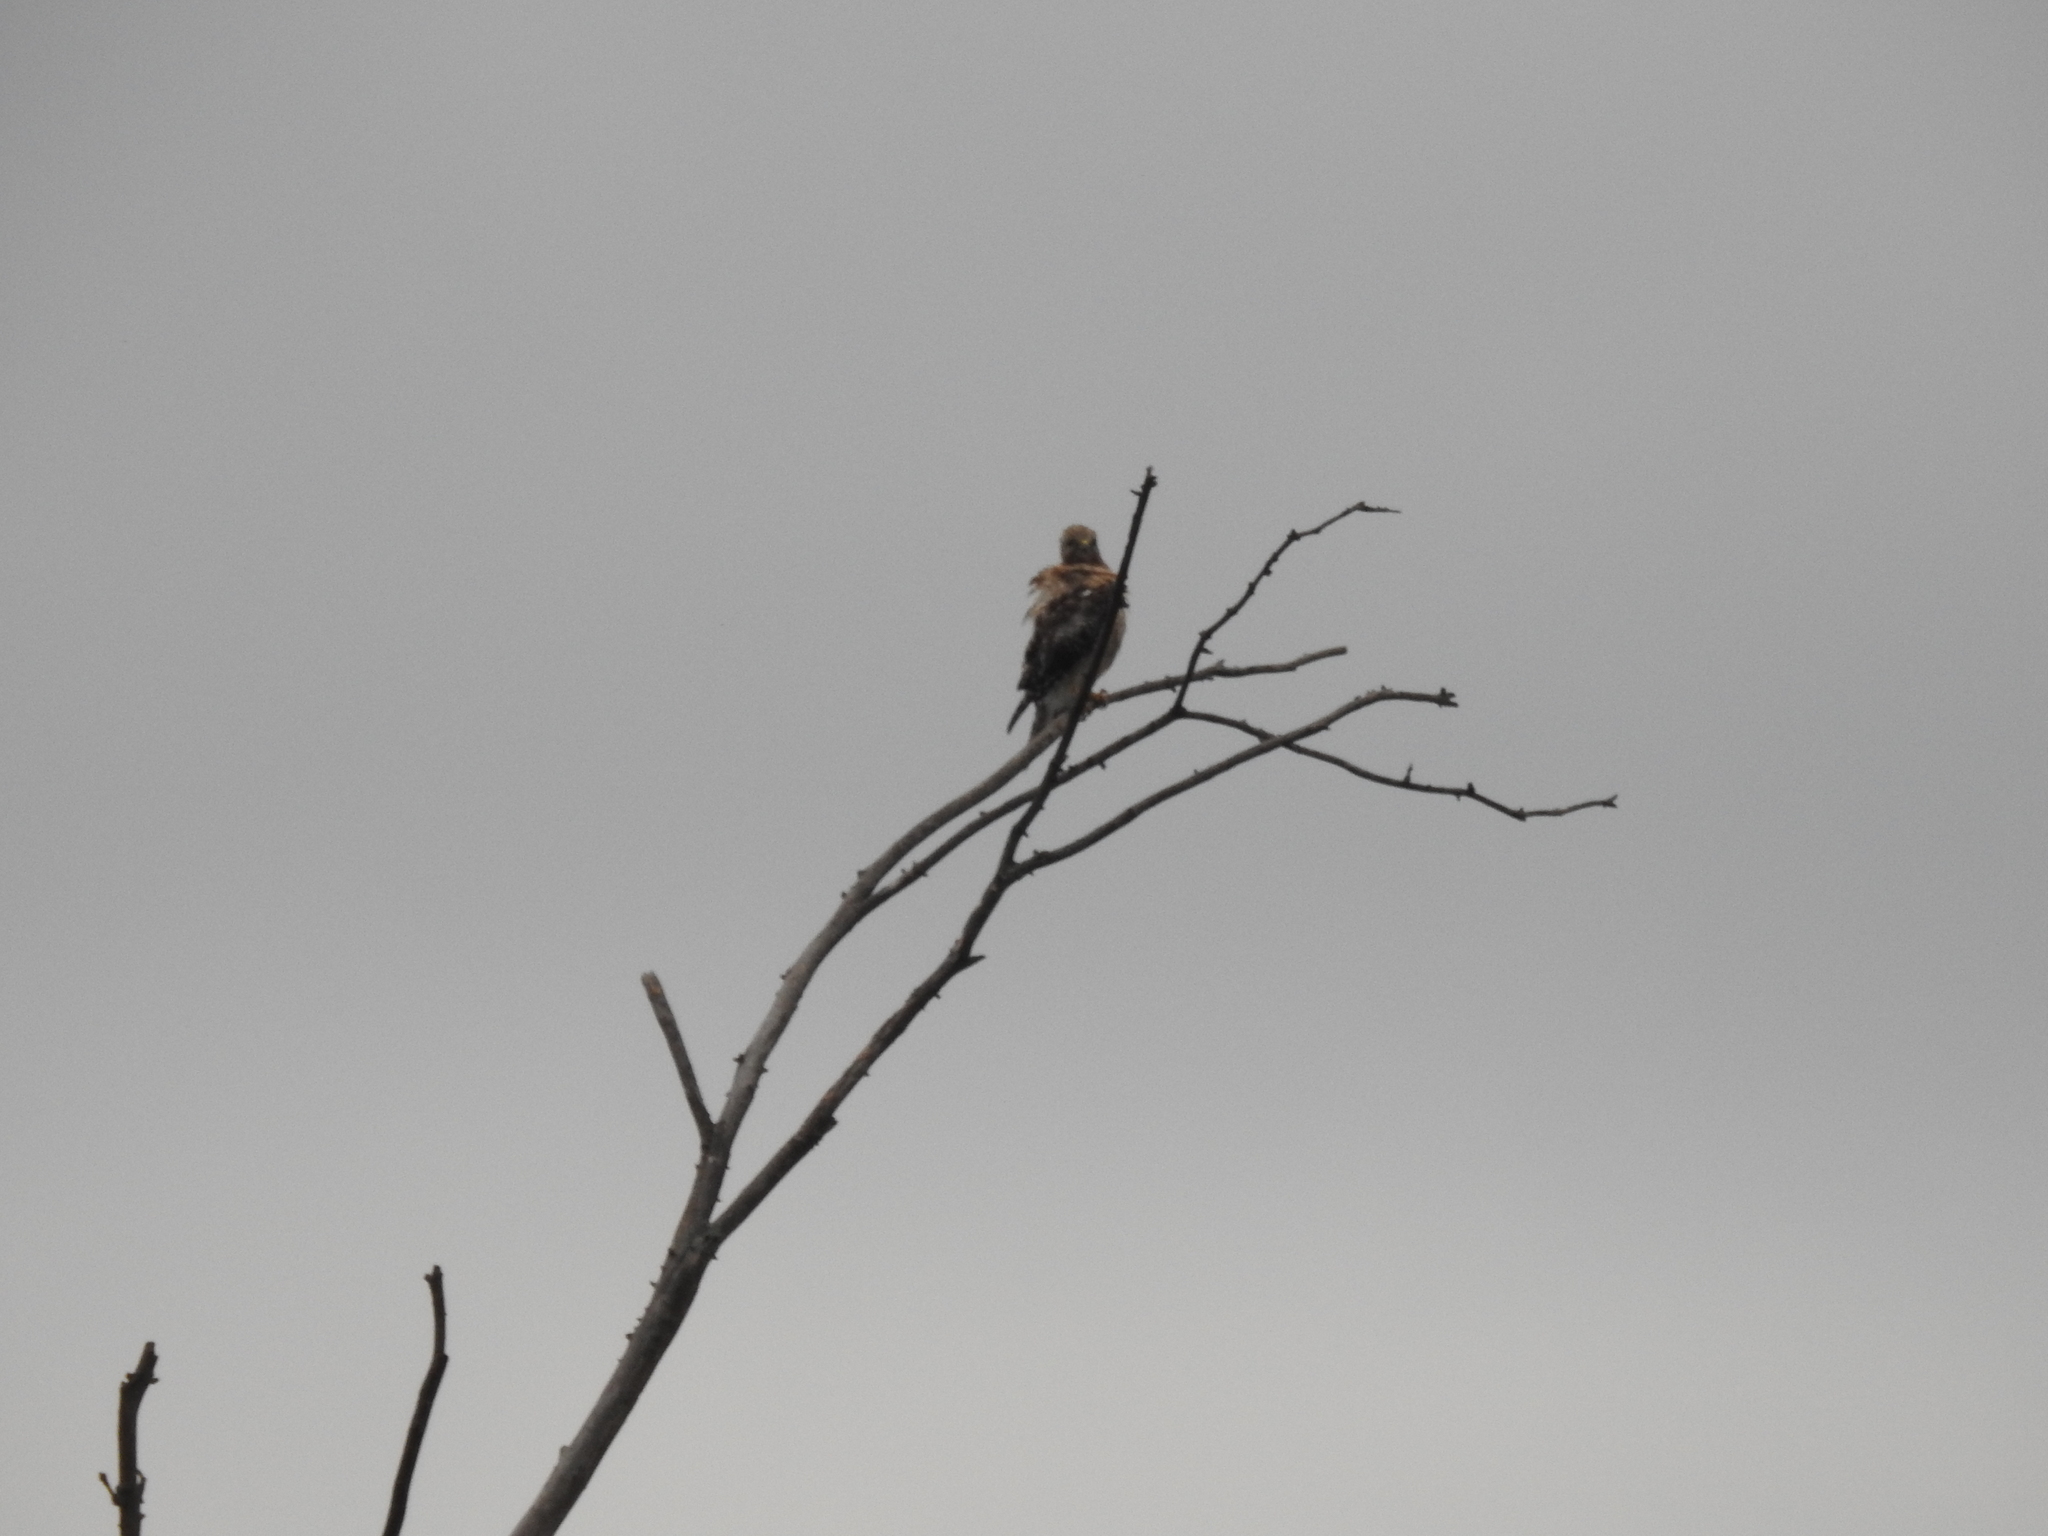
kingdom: Animalia
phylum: Chordata
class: Aves
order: Accipitriformes
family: Accipitridae
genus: Buteo
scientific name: Buteo jamaicensis
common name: Red-tailed hawk
